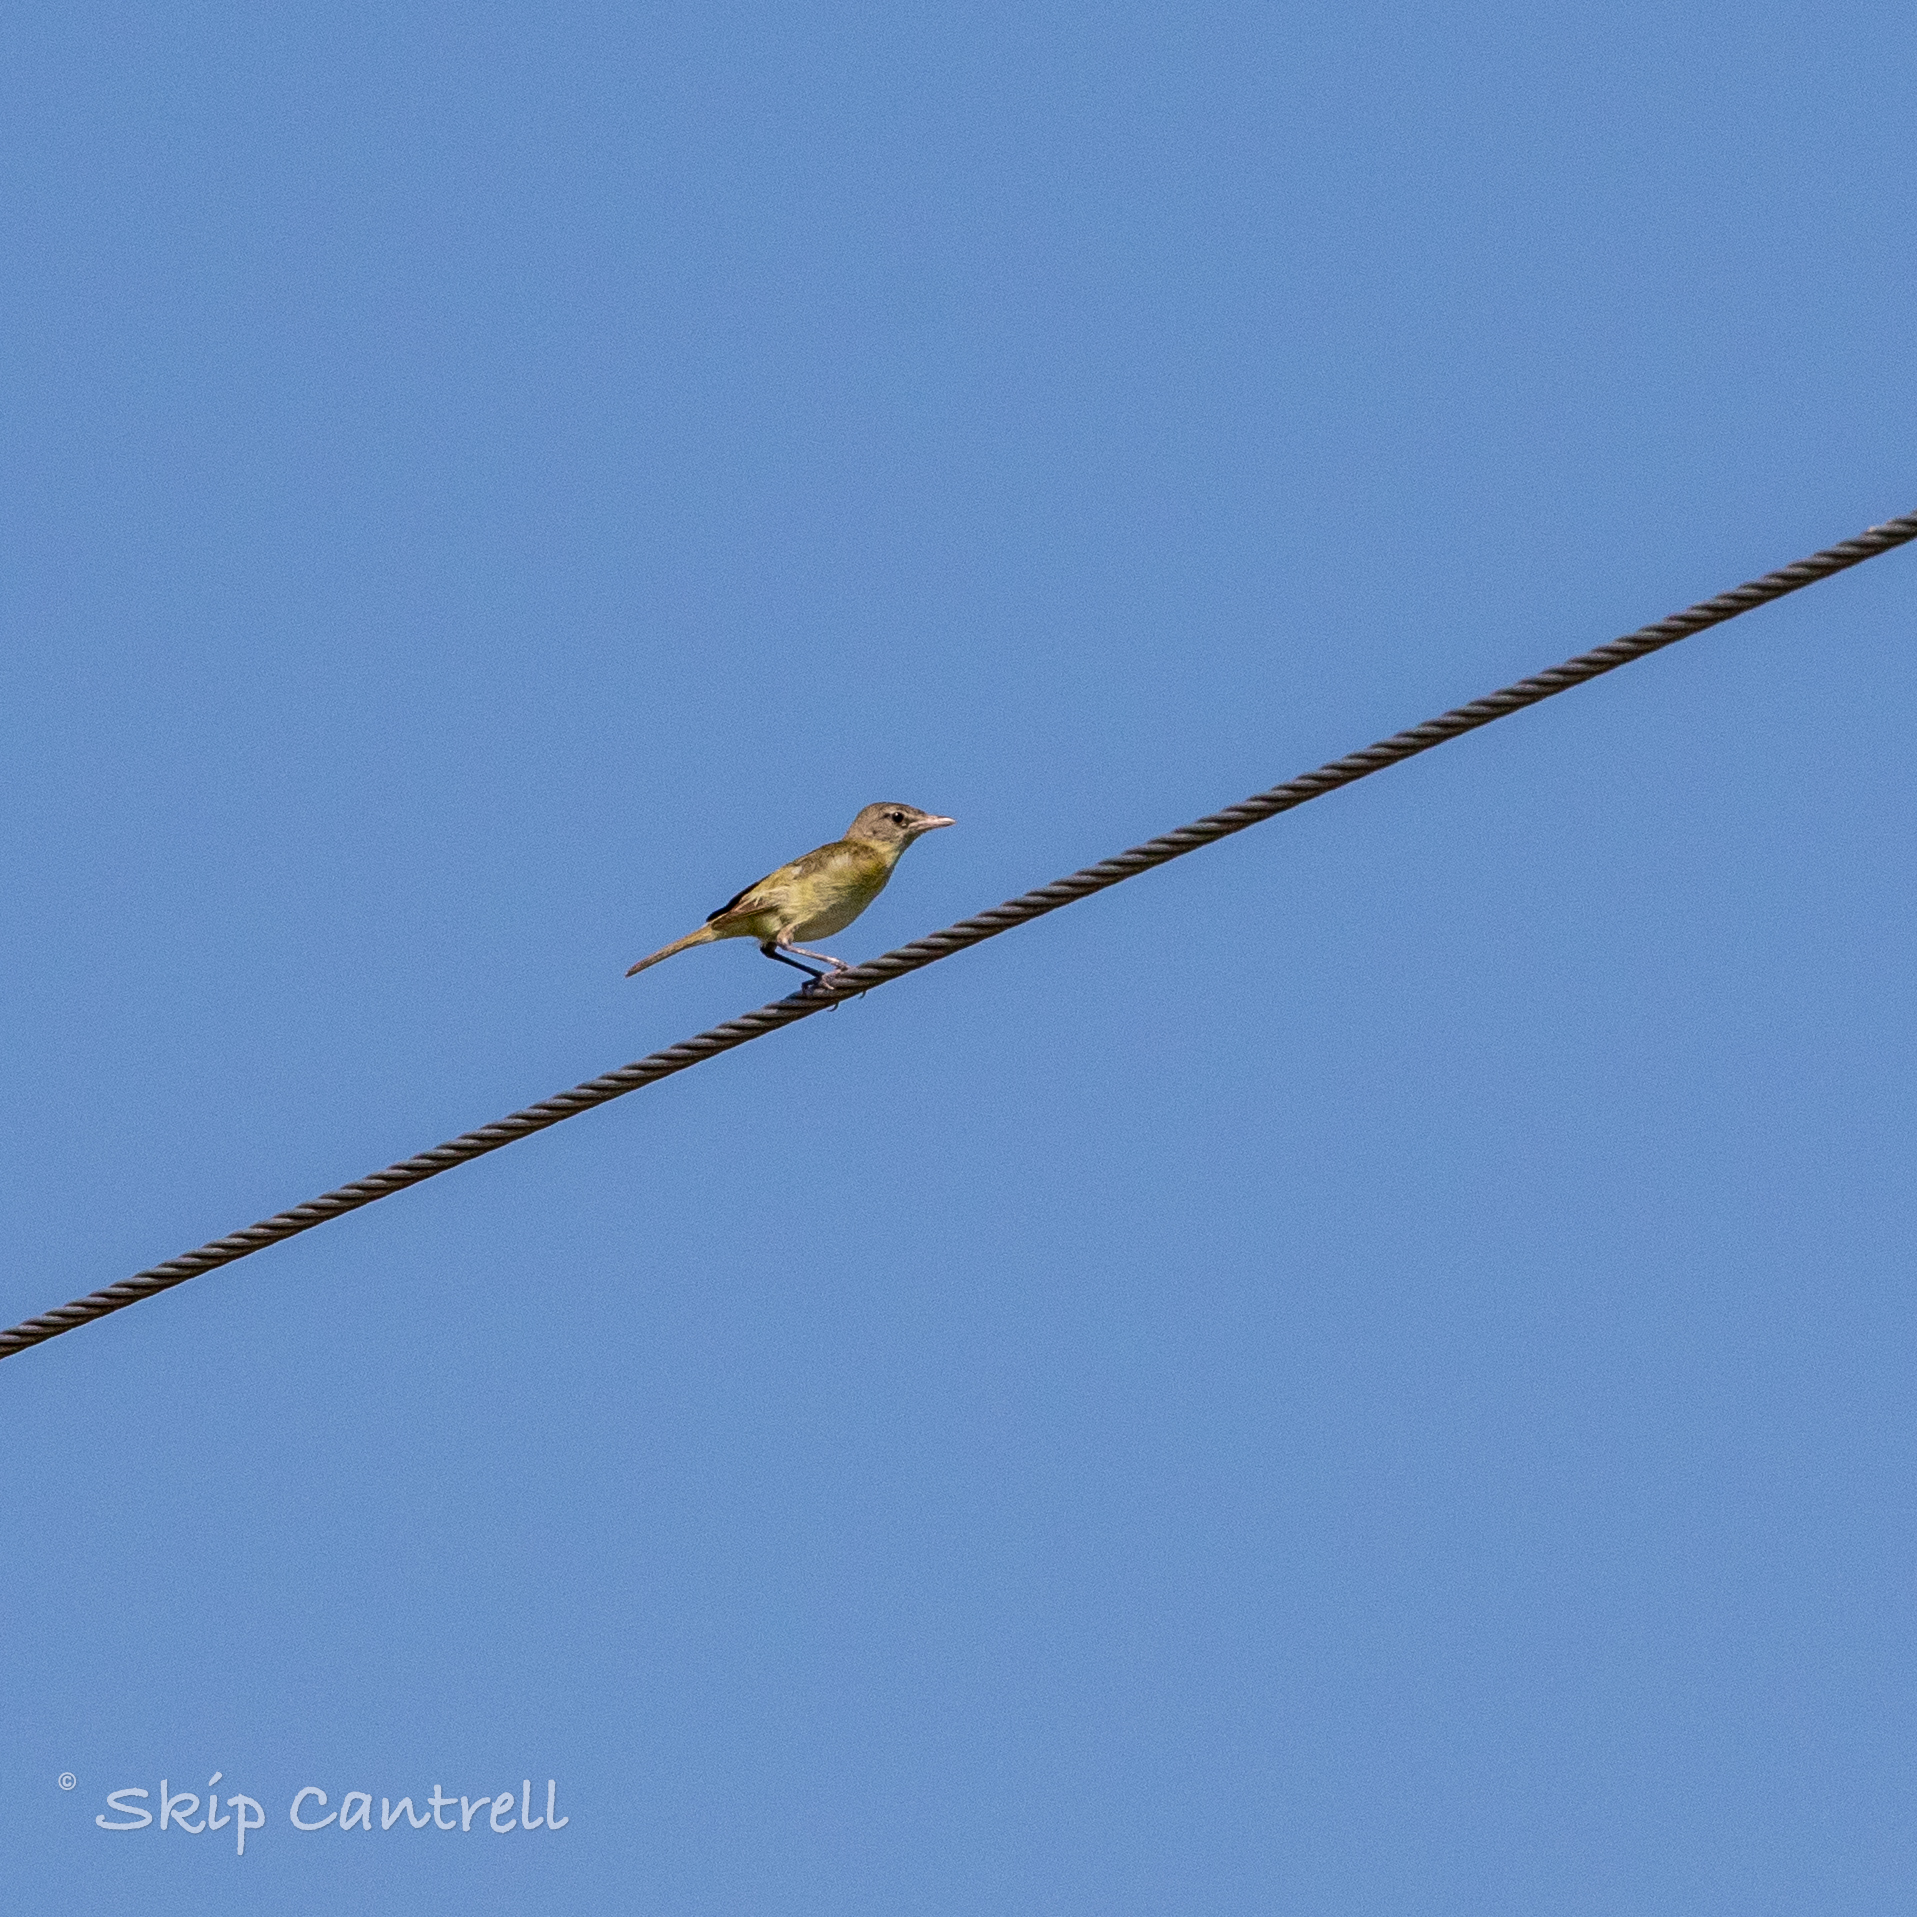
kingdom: Animalia
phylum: Chordata
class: Aves
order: Passeriformes
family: Vireonidae
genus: Vireo
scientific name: Vireo bellii
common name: Bell's vireo
